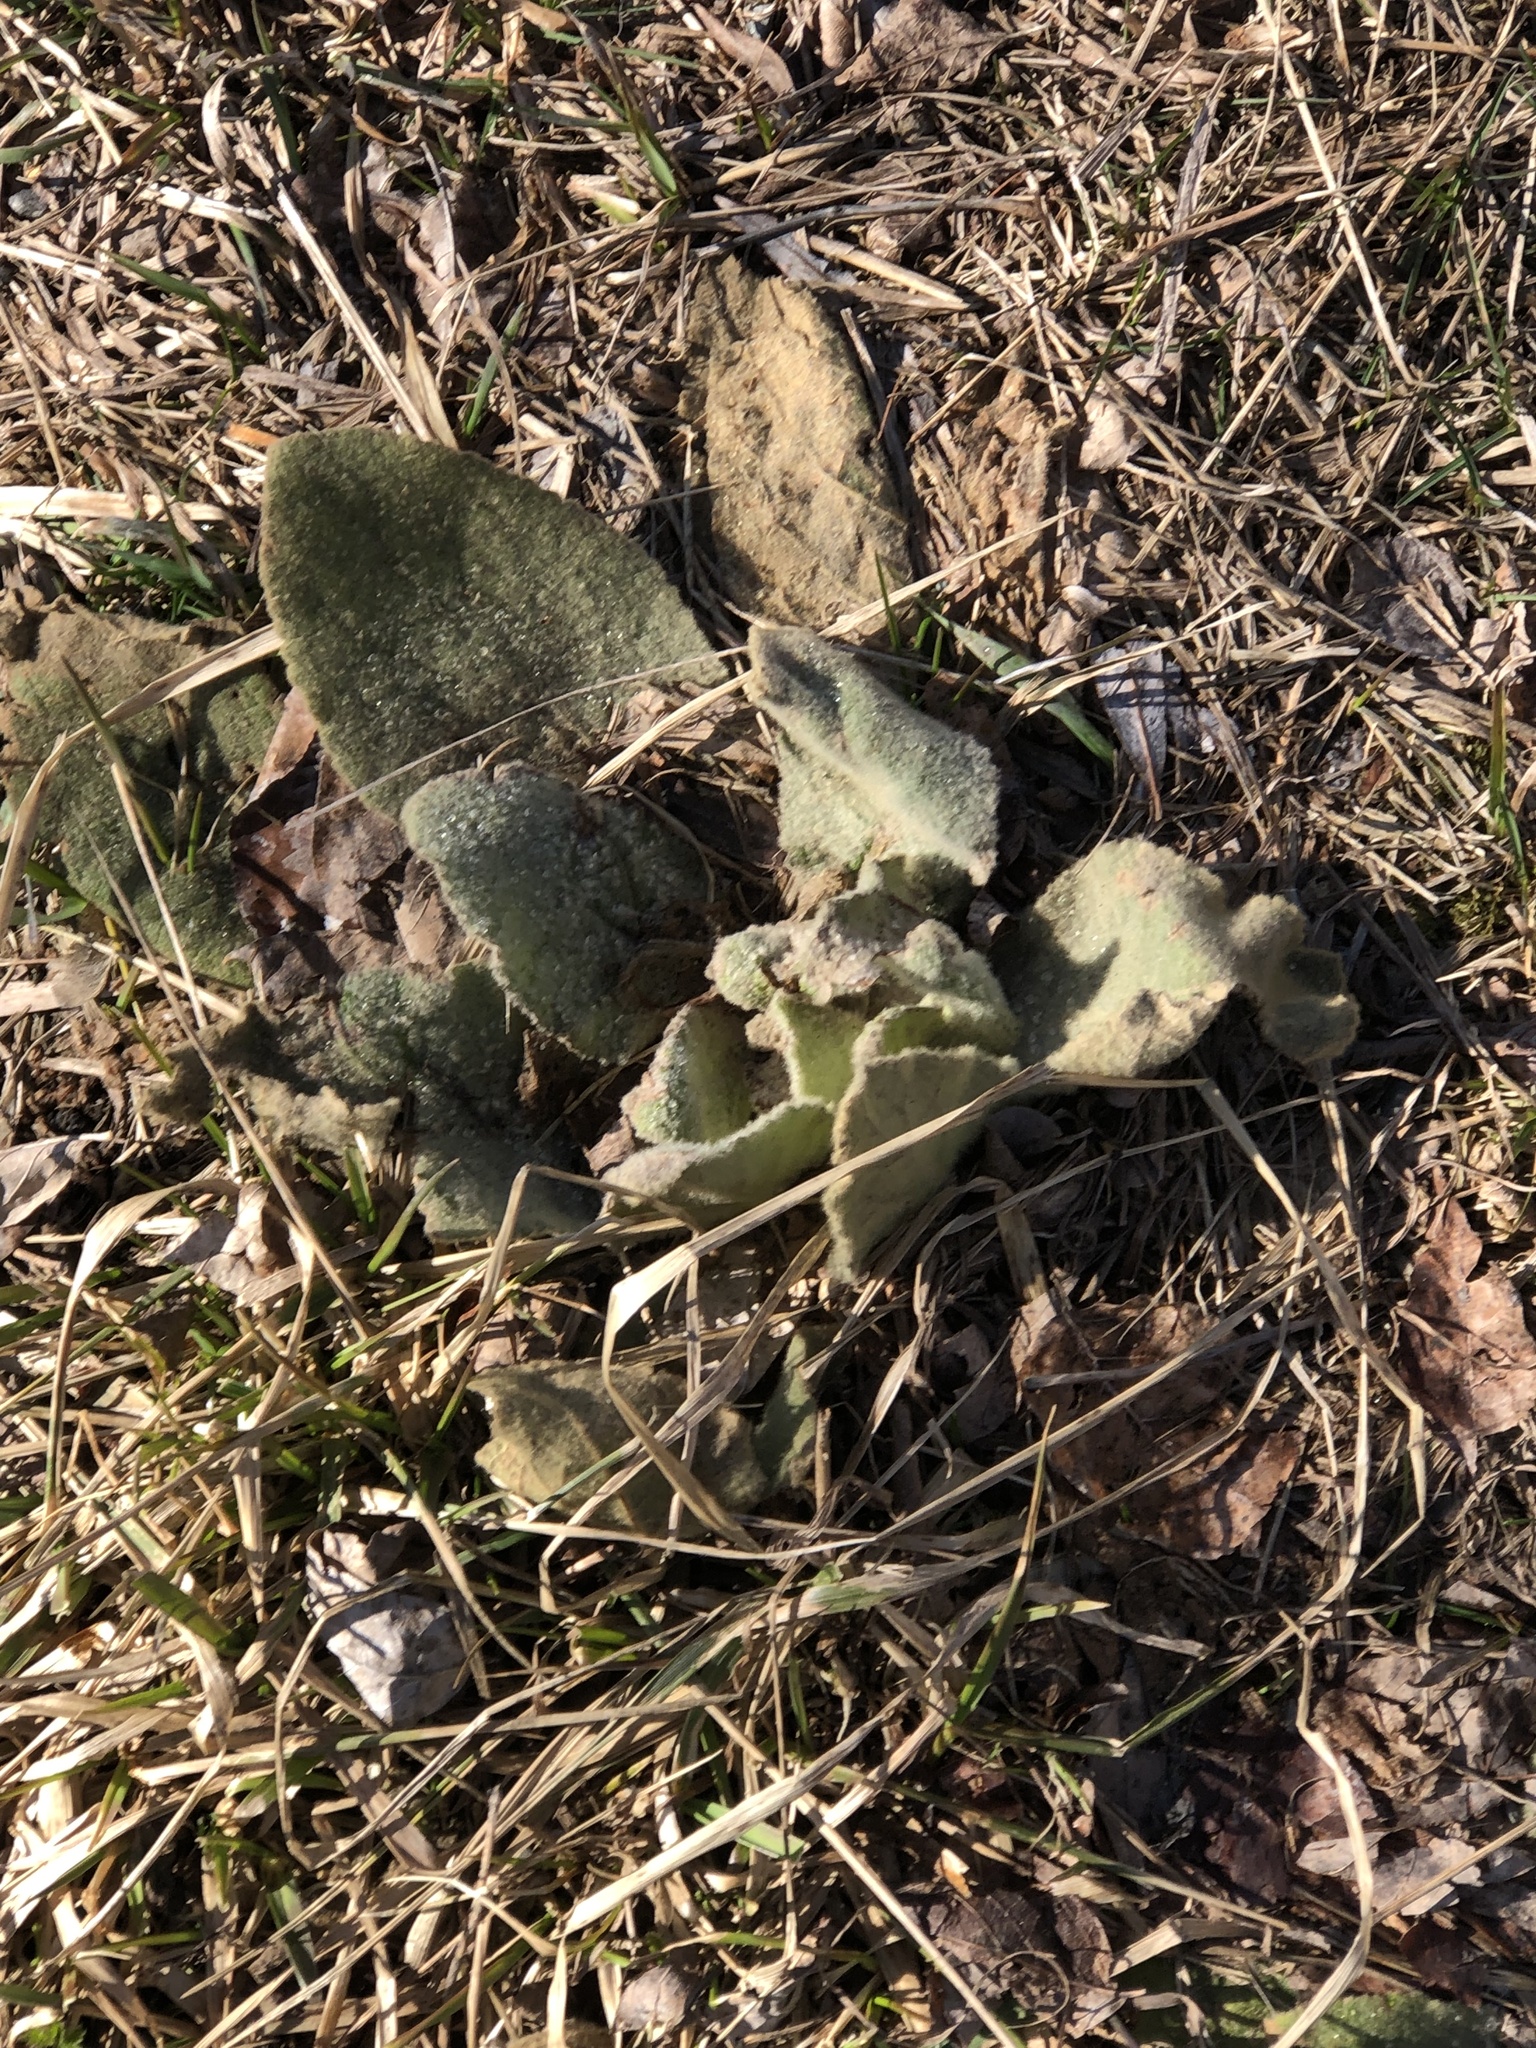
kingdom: Plantae
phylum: Tracheophyta
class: Magnoliopsida
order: Lamiales
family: Scrophulariaceae
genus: Verbascum
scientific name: Verbascum thapsus
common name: Common mullein
